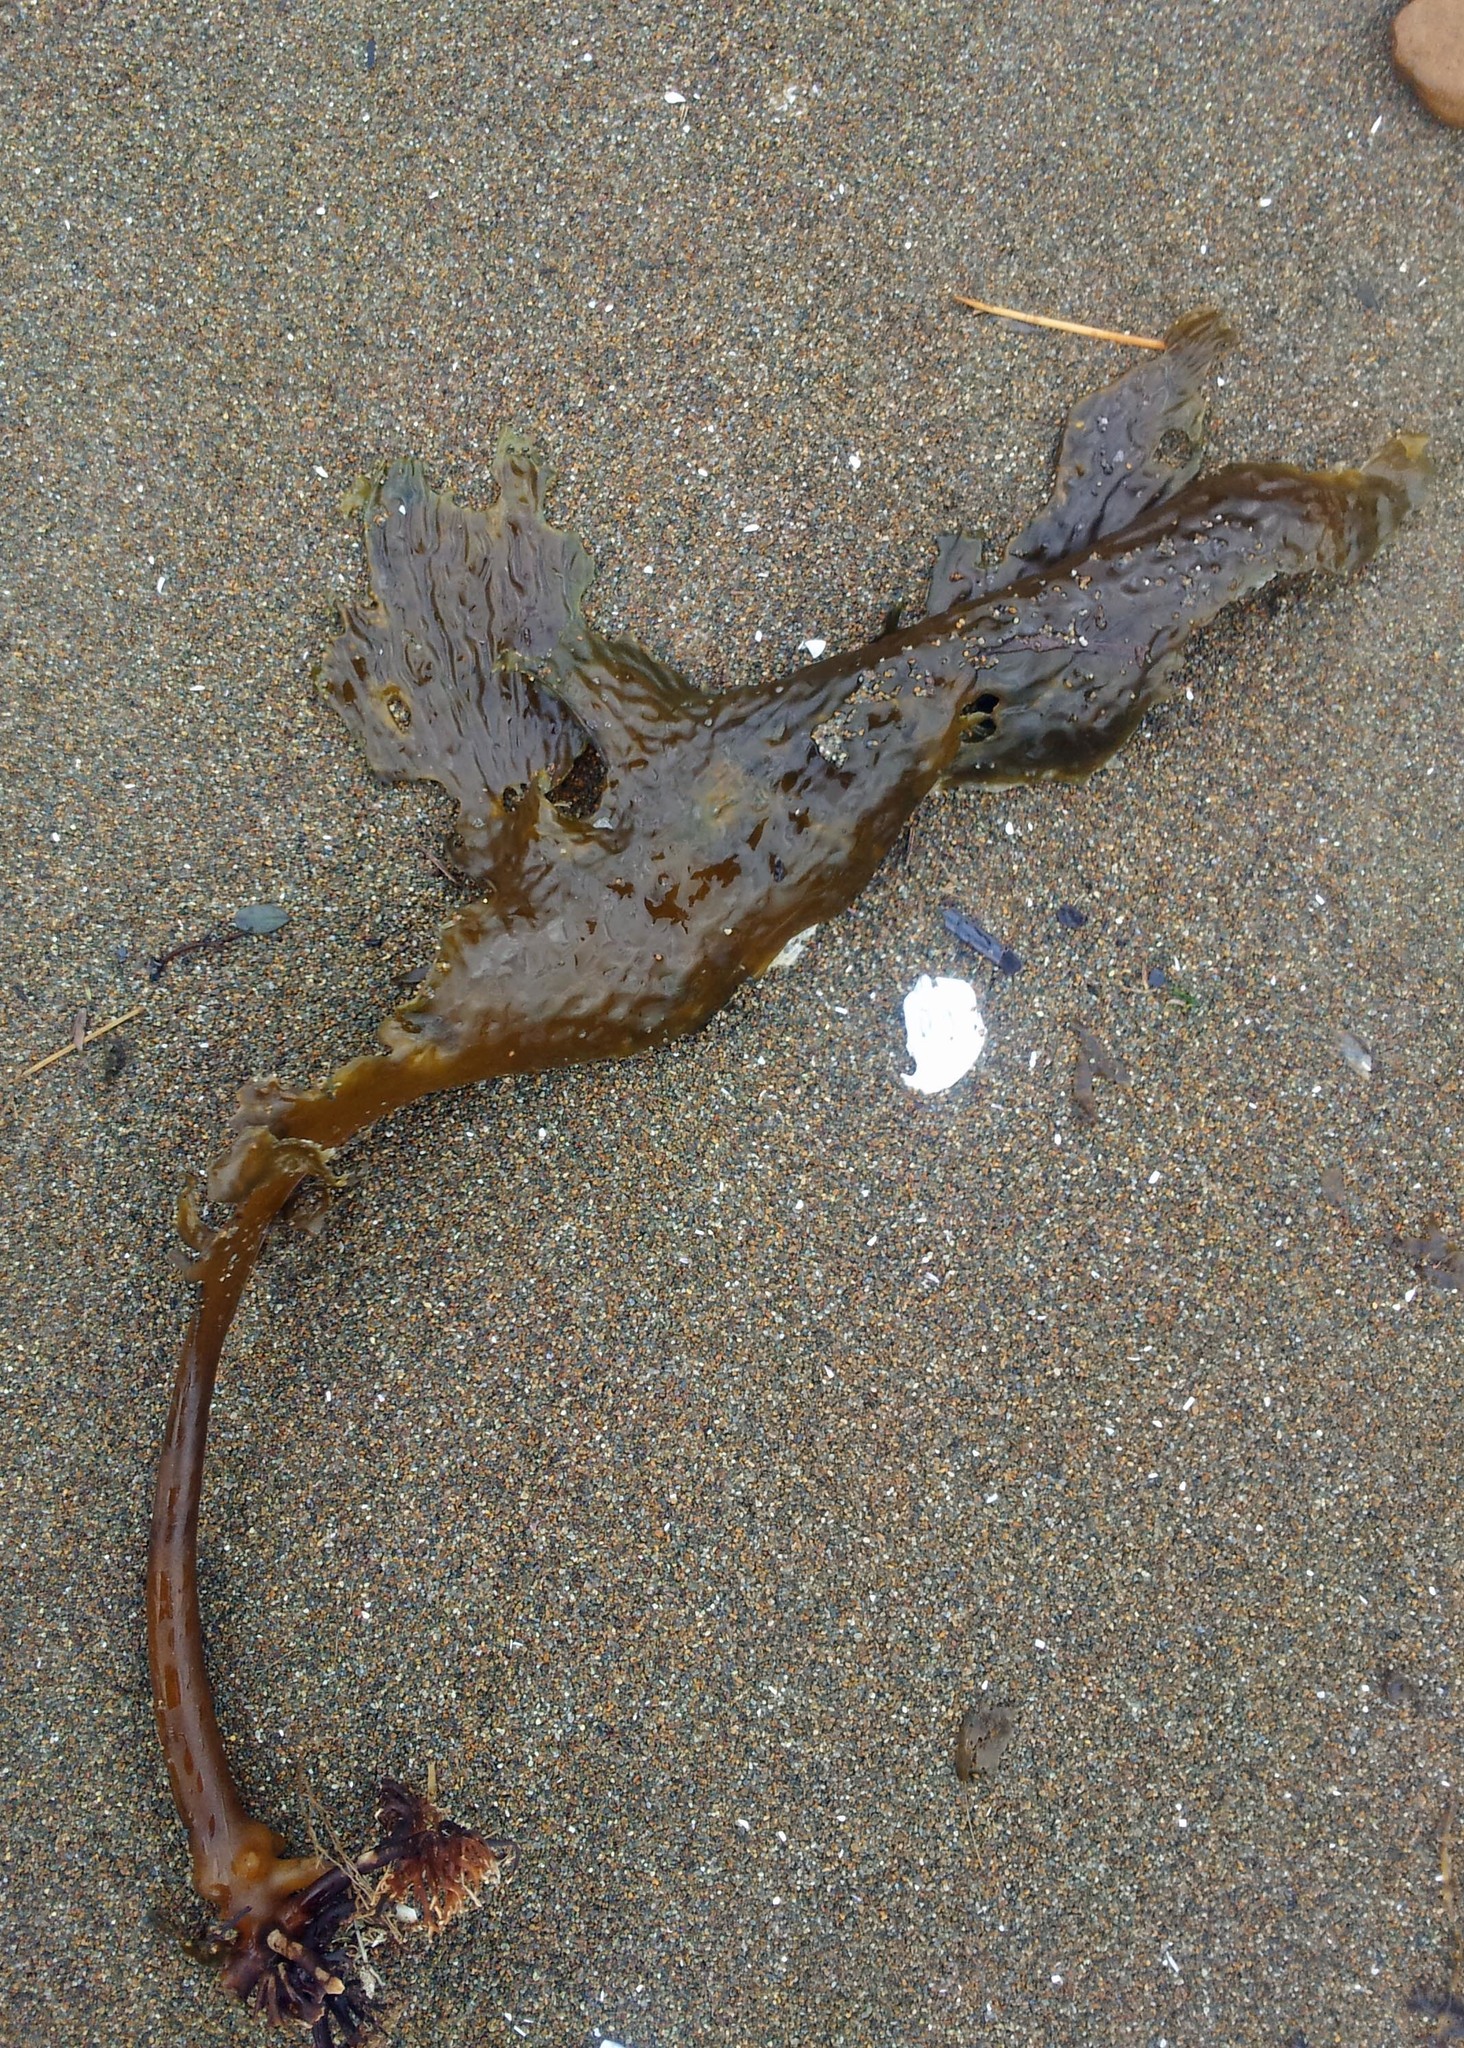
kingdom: Chromista
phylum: Ochrophyta
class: Phaeophyceae
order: Laminariales
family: Lessoniaceae
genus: Ecklonia
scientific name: Ecklonia radiata
